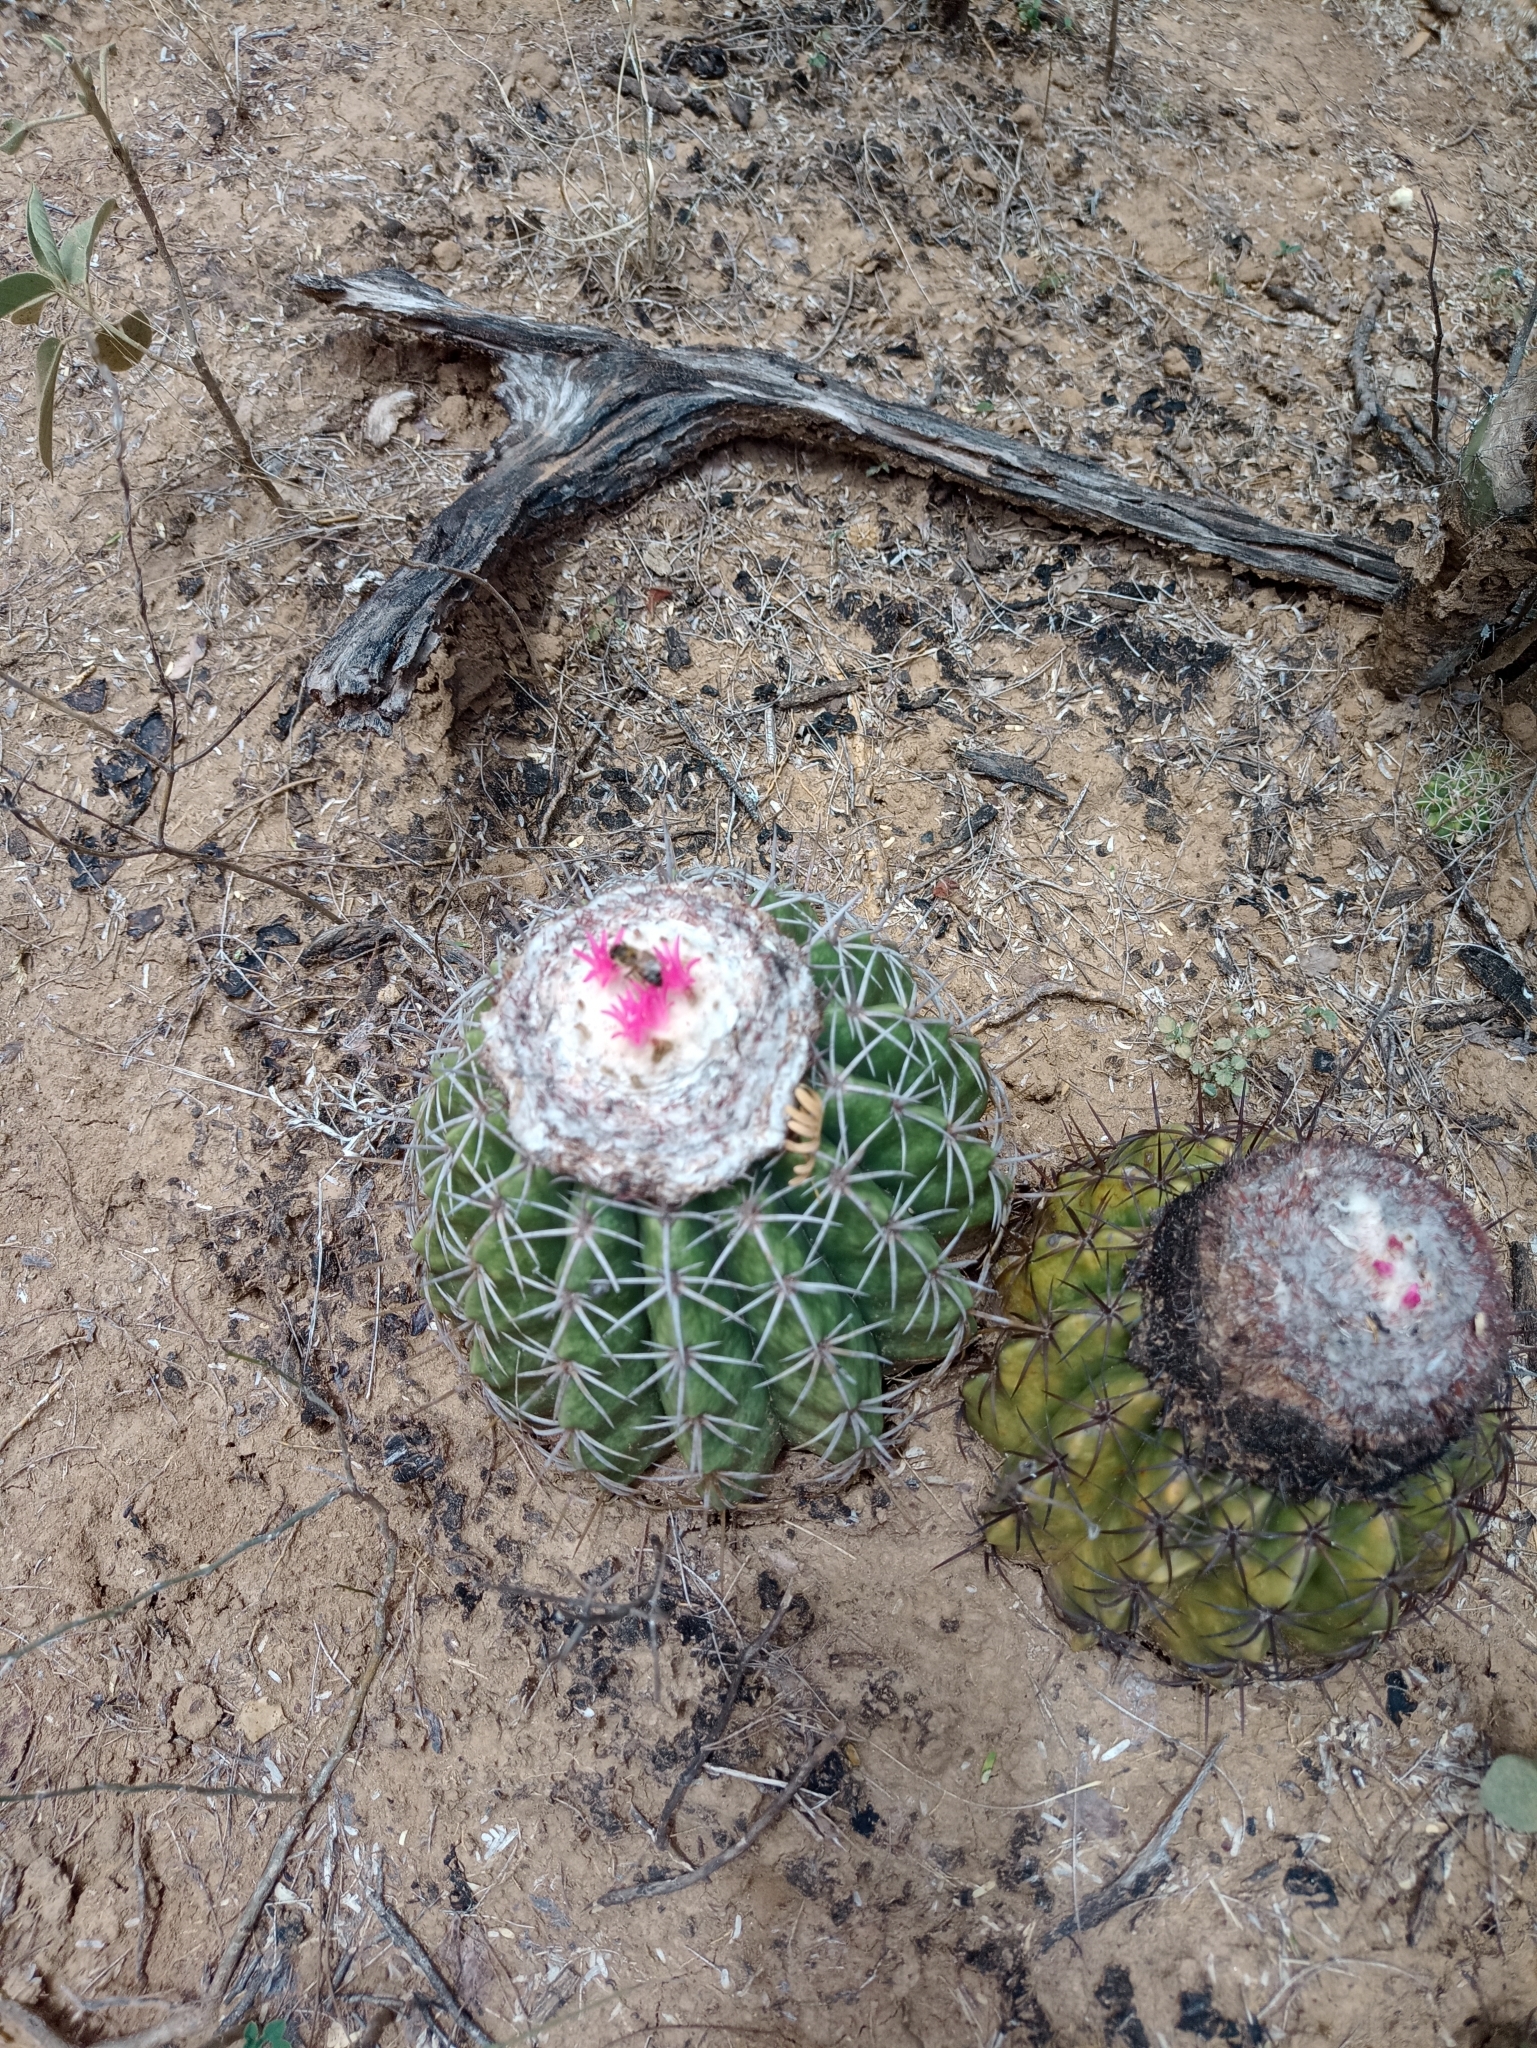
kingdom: Plantae
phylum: Tracheophyta
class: Magnoliopsida
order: Caryophyllales
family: Cactaceae
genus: Melocactus
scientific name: Melocactus curvispinus
